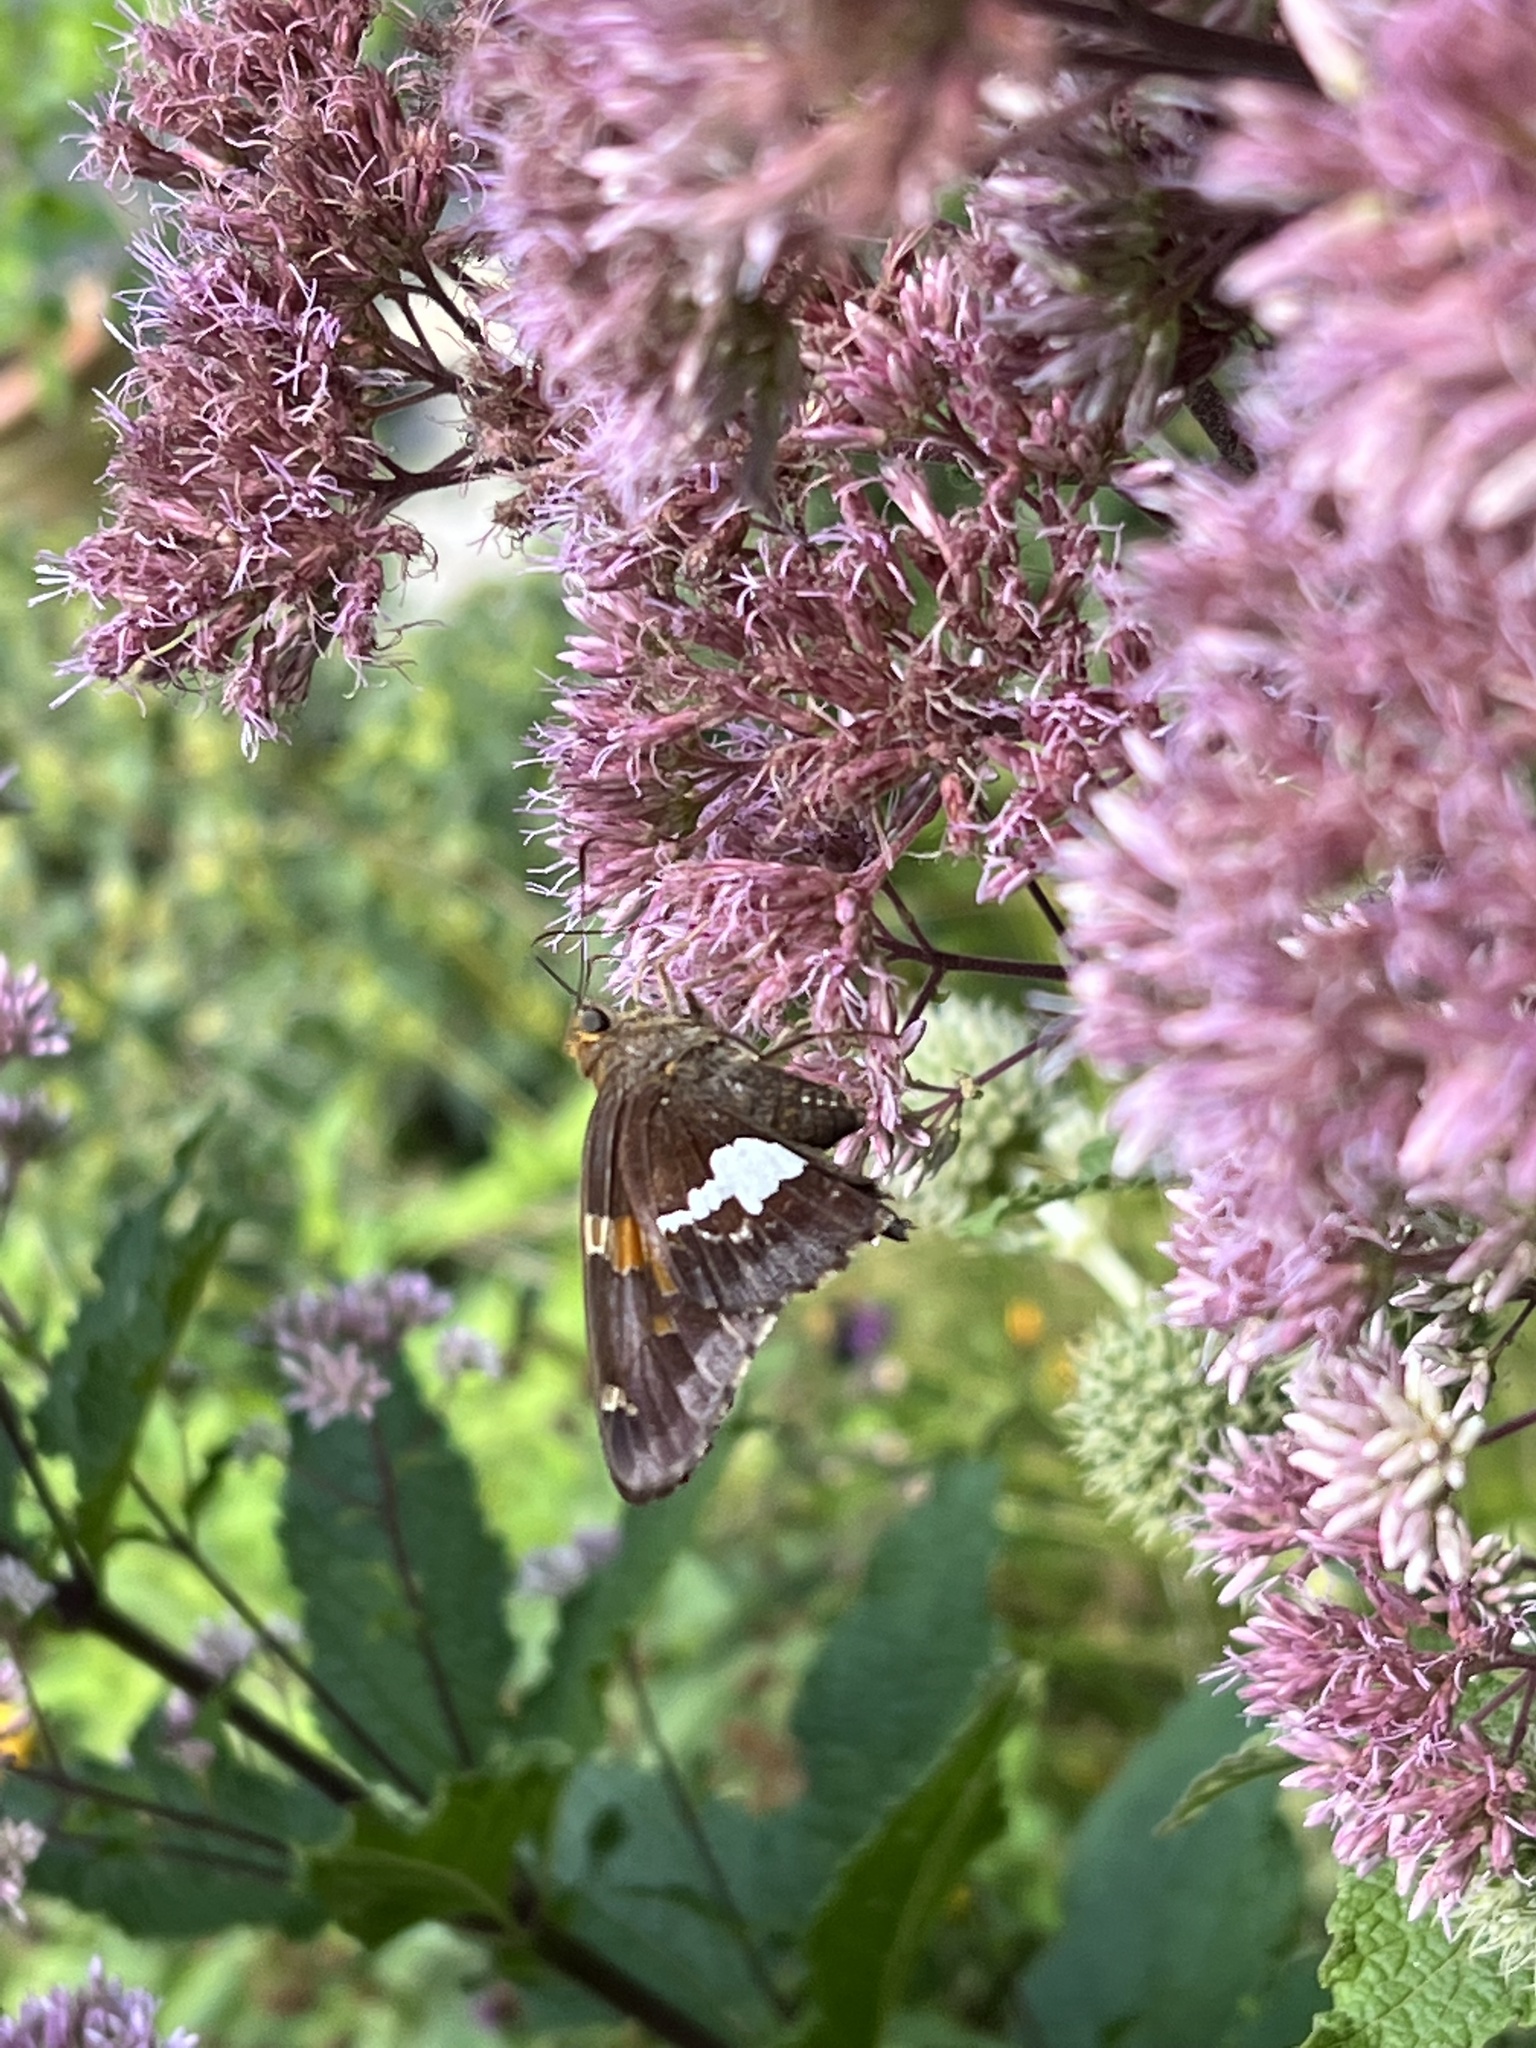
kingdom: Animalia
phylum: Arthropoda
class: Insecta
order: Lepidoptera
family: Hesperiidae
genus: Epargyreus
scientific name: Epargyreus clarus
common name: Silver-spotted skipper
